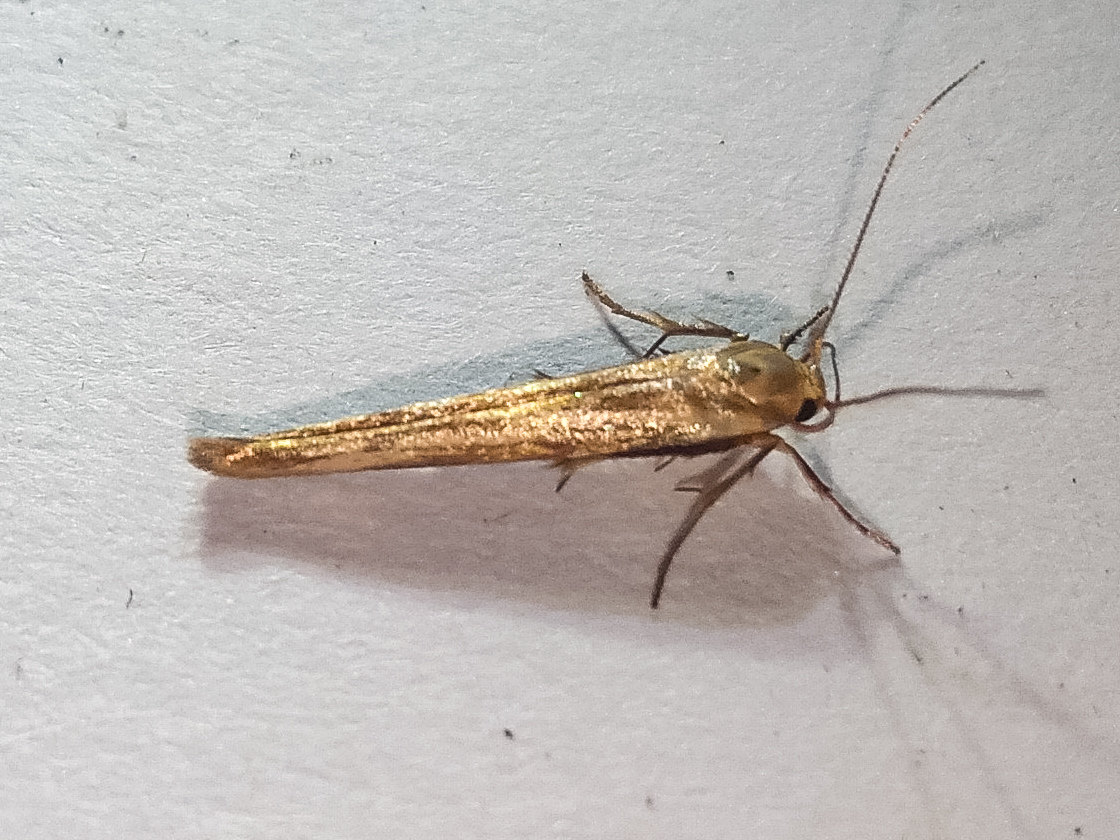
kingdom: Animalia
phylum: Arthropoda
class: Insecta
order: Lepidoptera
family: Stathmopodidae
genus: Stathmopoda
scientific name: Stathmopoda aposema
